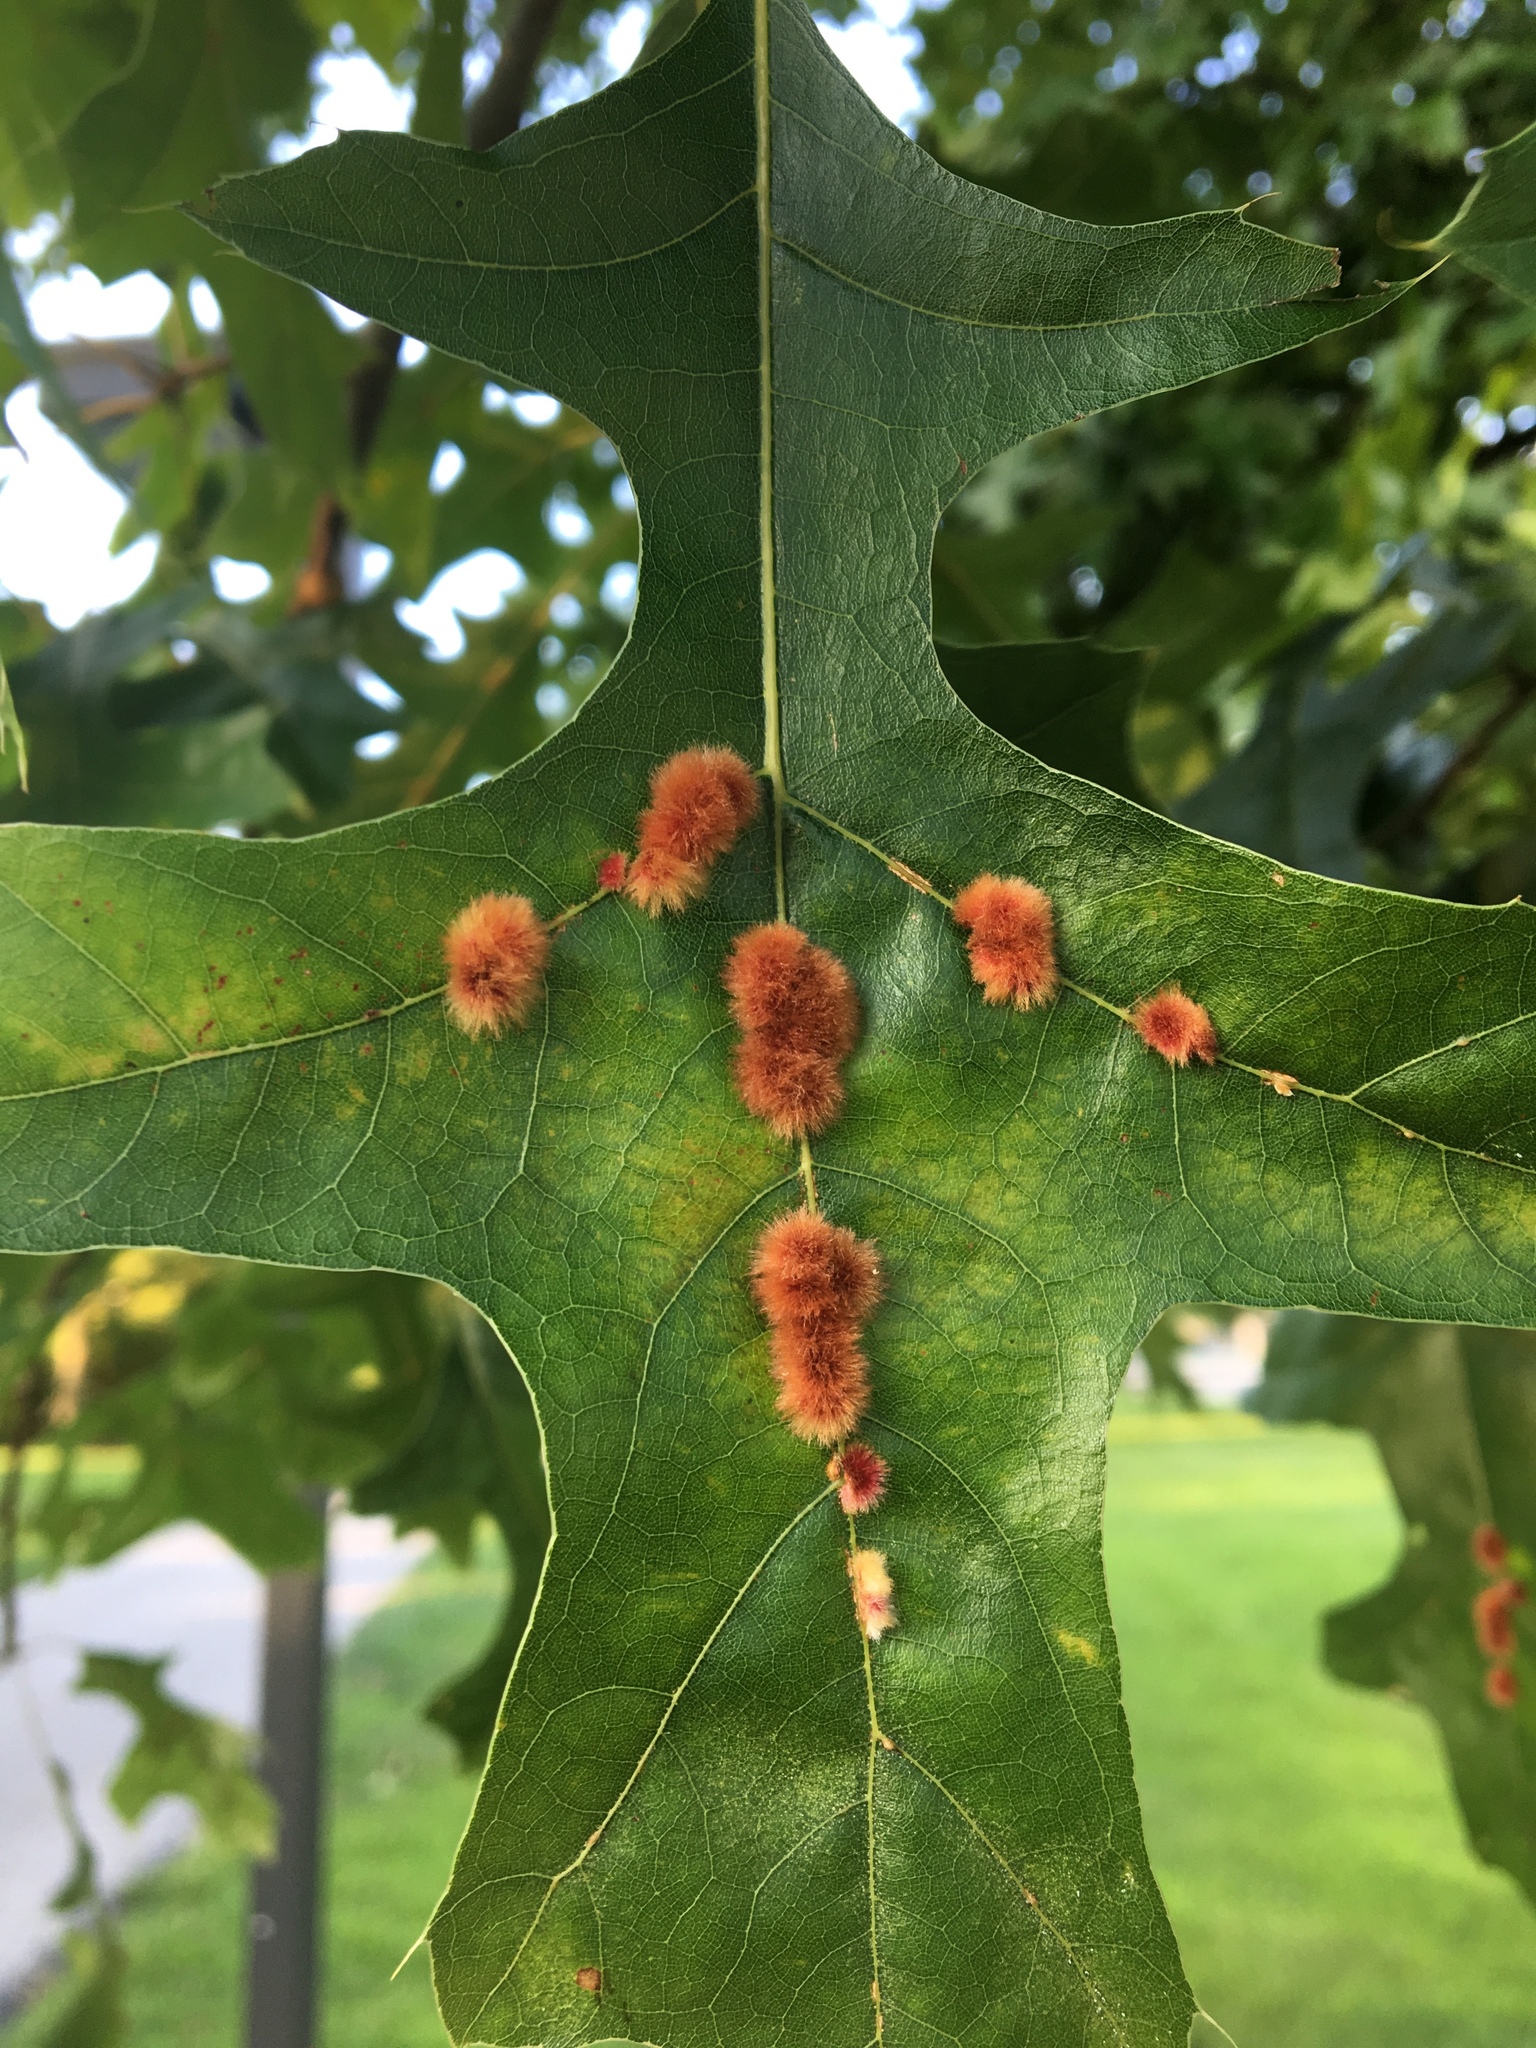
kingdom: Animalia
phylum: Arthropoda
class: Insecta
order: Hymenoptera
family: Cynipidae
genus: Callirhytis
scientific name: Callirhytis
